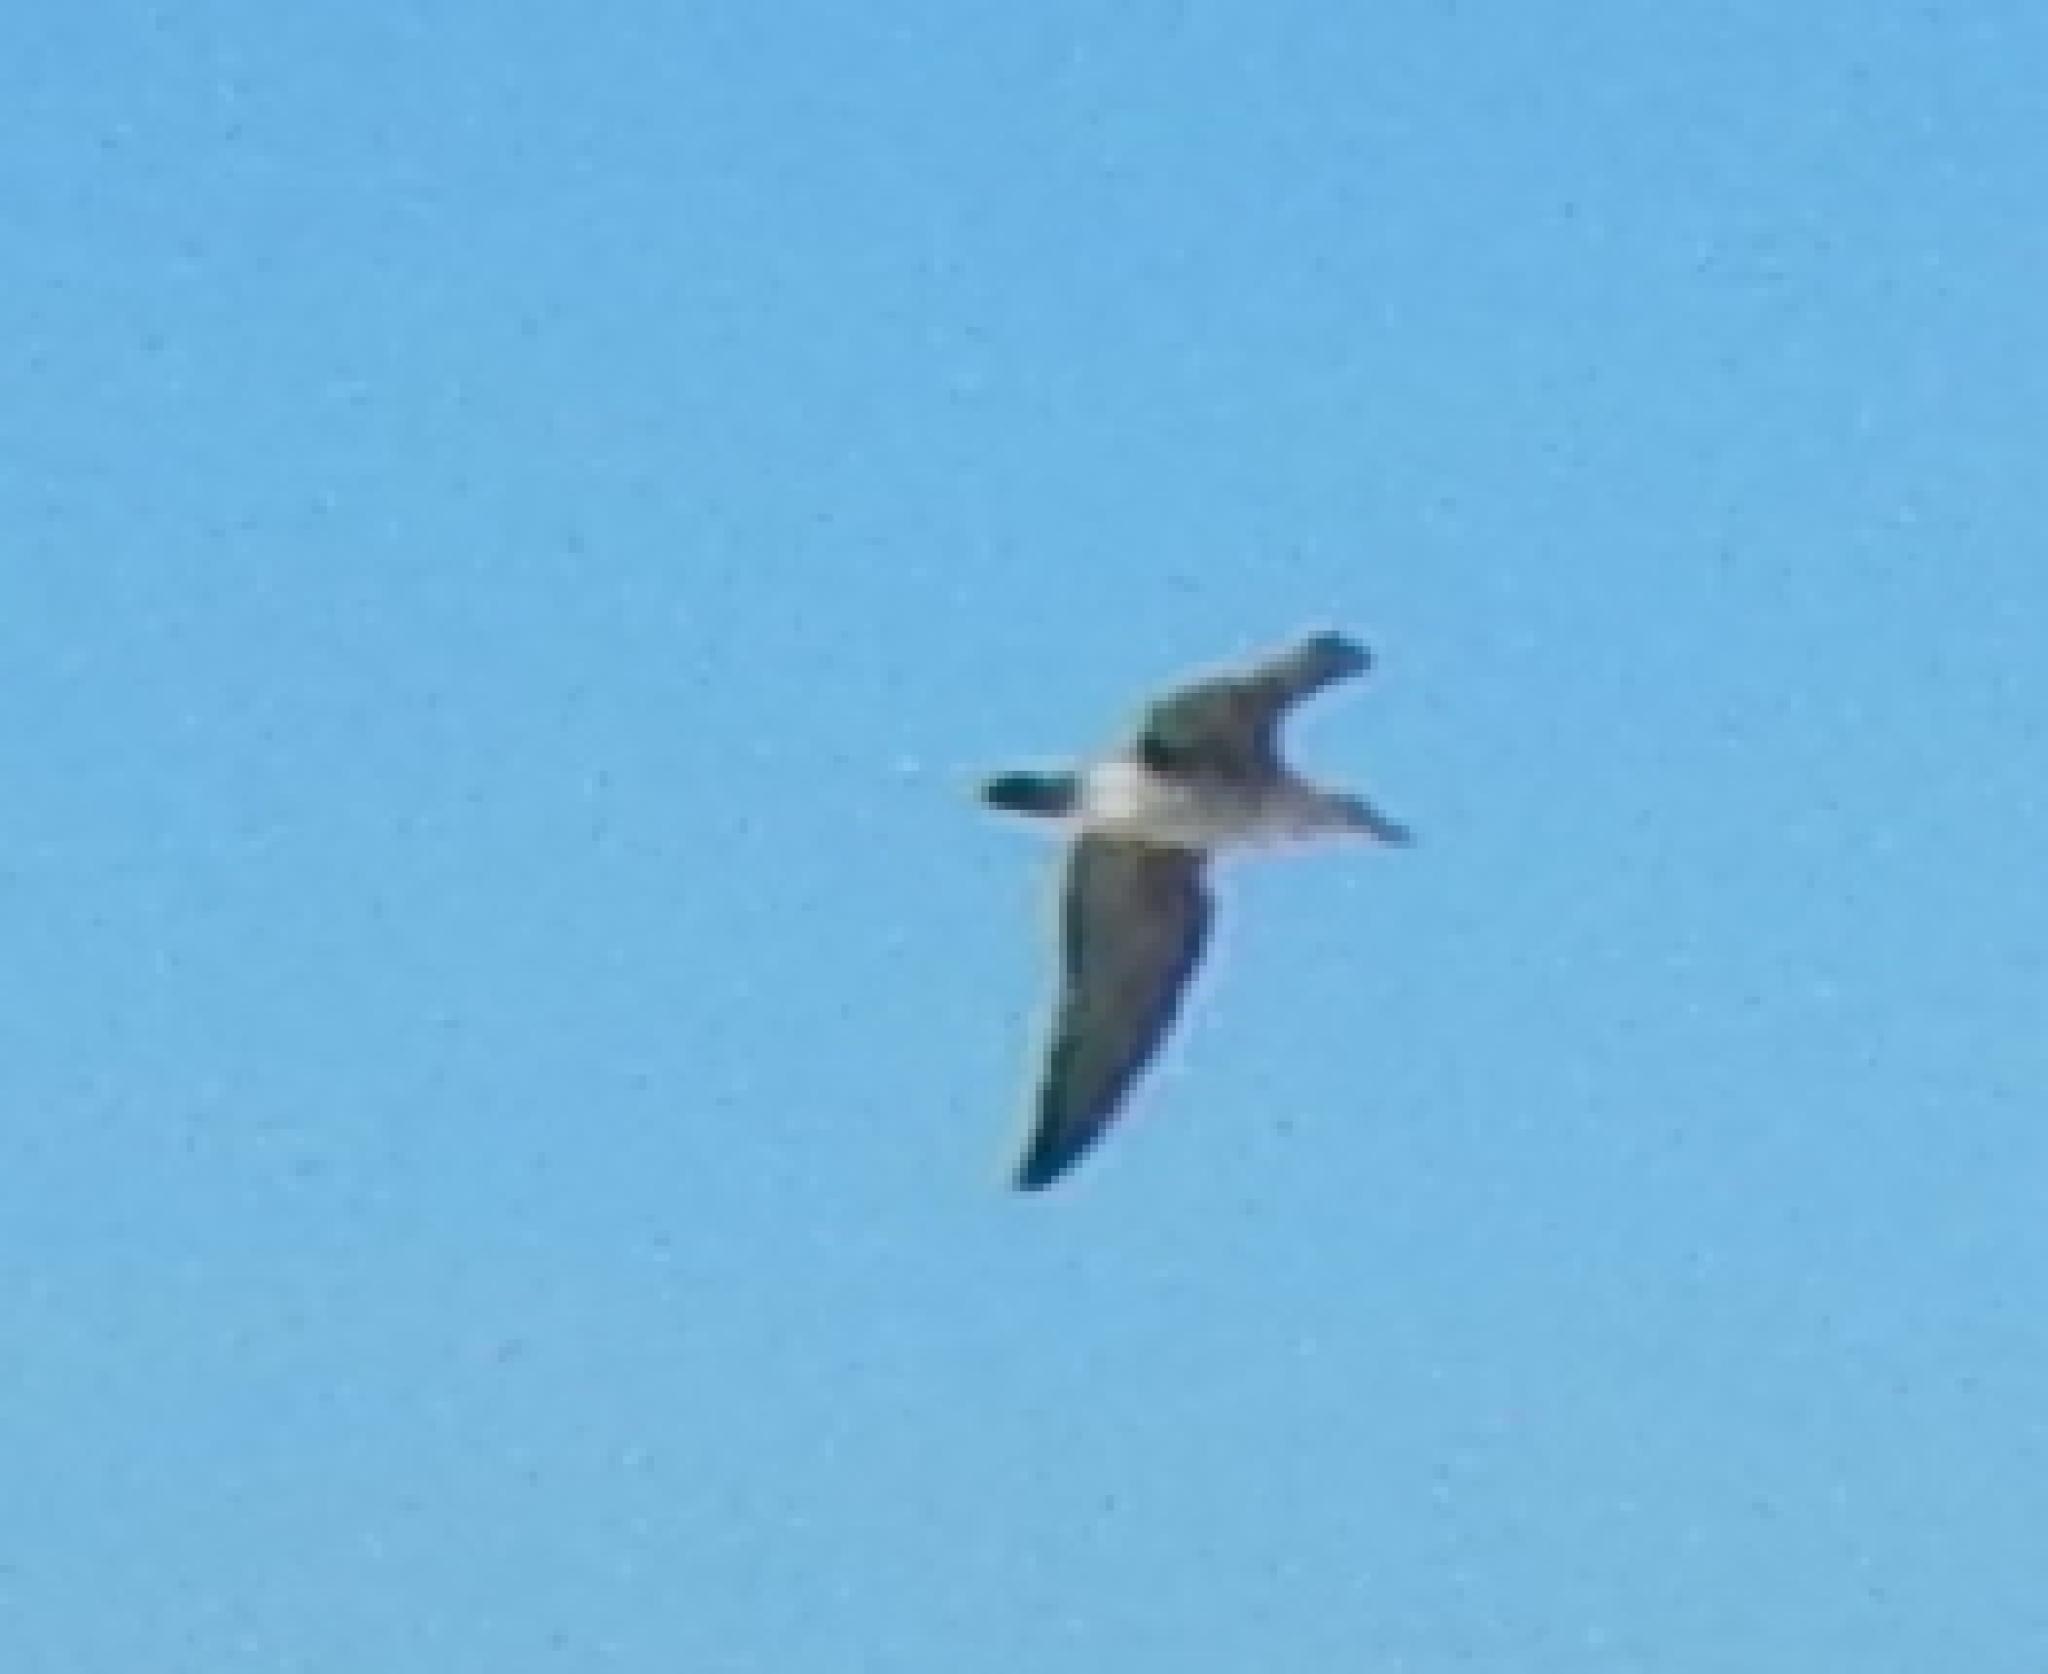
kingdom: Animalia
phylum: Chordata
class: Aves
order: Procellariiformes
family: Diomedeidae
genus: Thalassarche
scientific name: Thalassarche cauta
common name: Shy albatross
